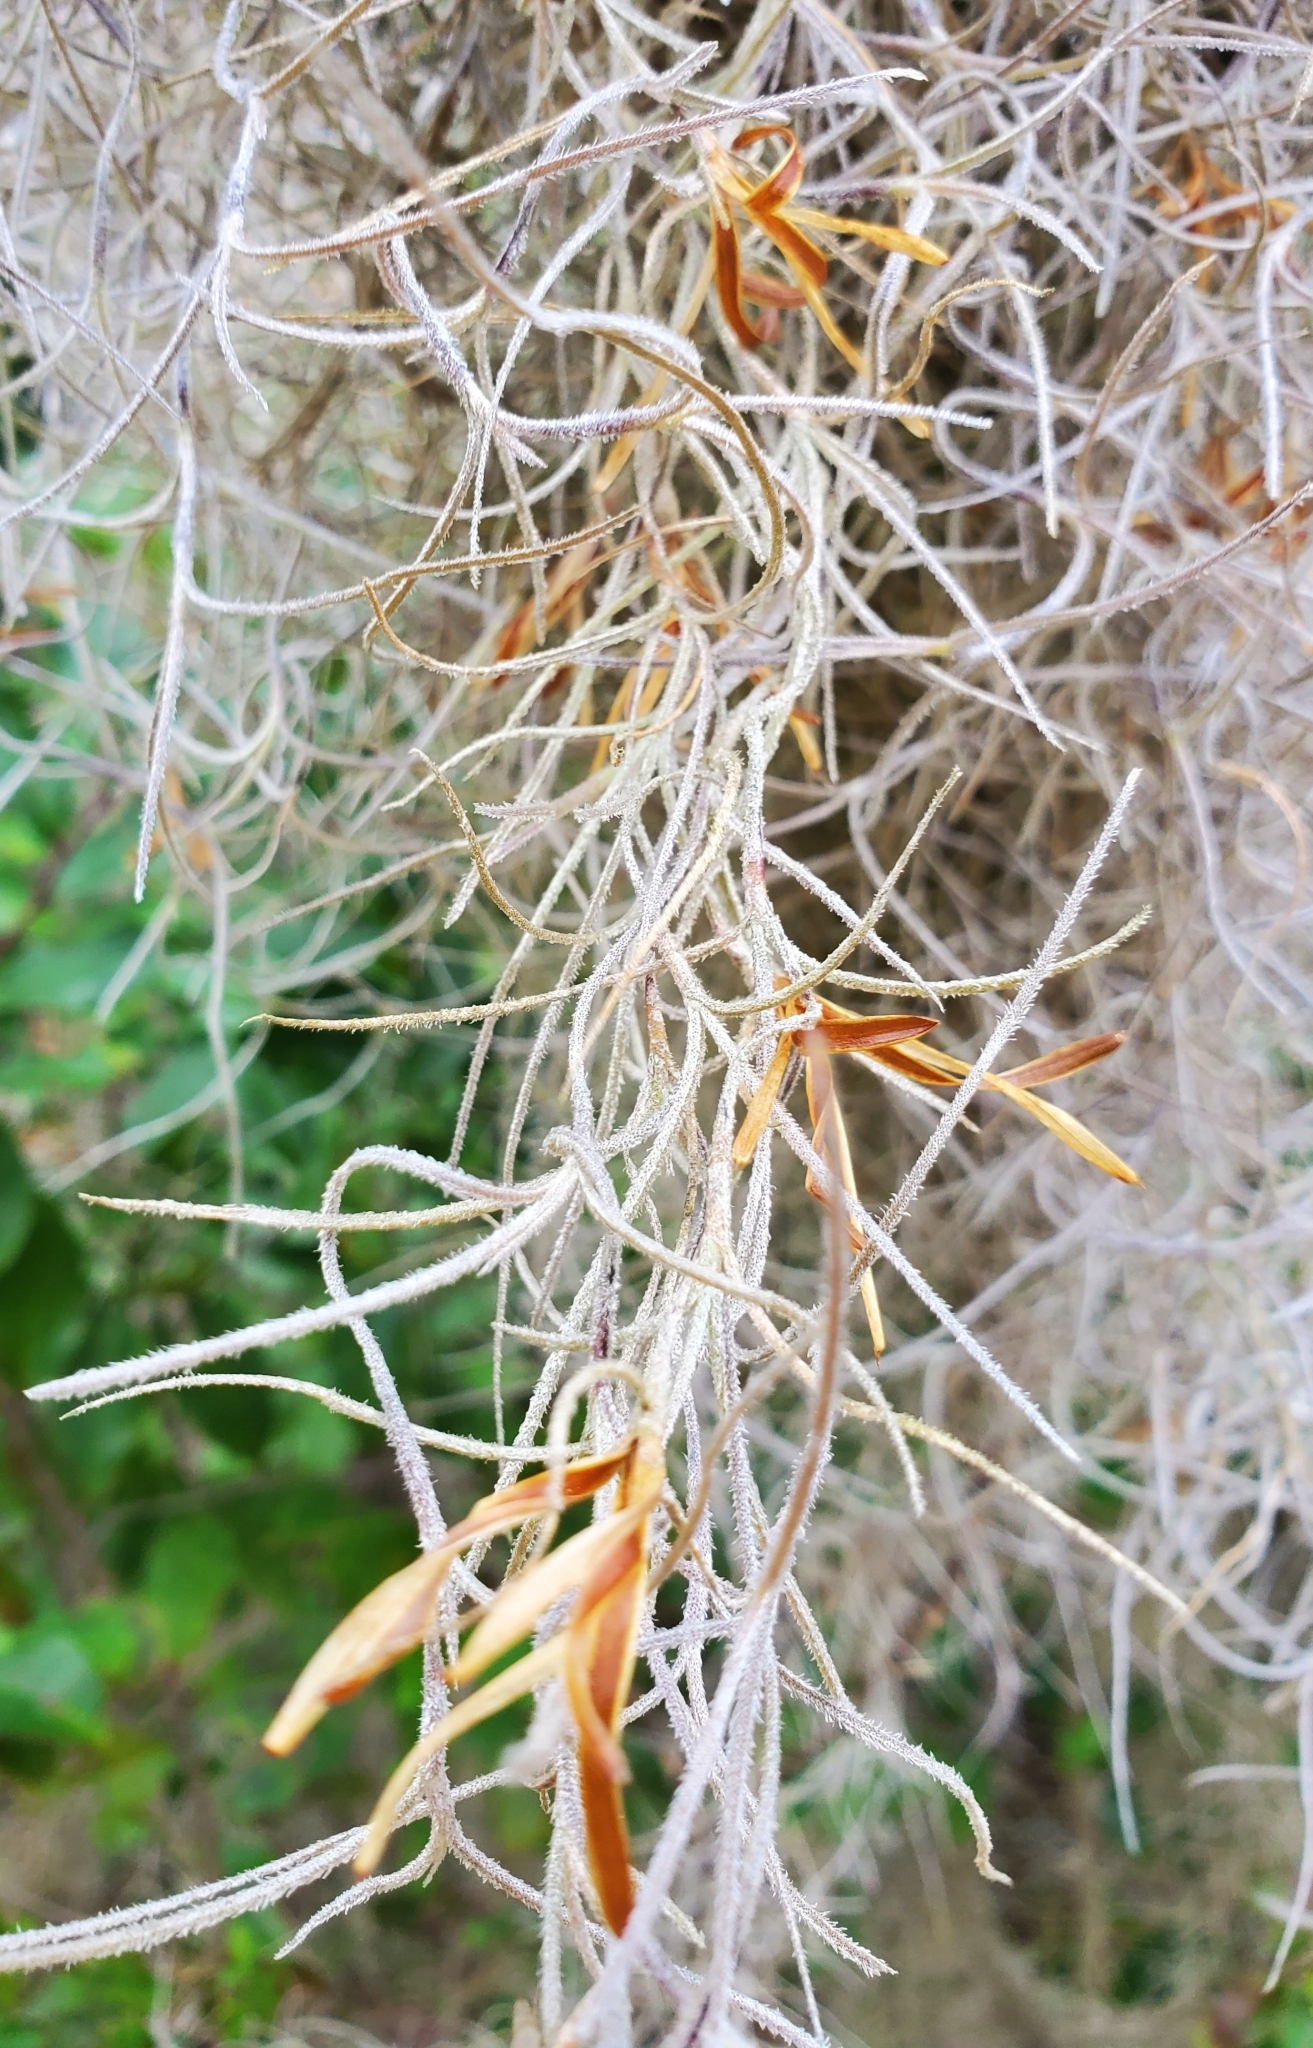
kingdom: Plantae
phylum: Tracheophyta
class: Liliopsida
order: Poales
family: Bromeliaceae
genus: Tillandsia
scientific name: Tillandsia usneoides
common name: Spanish moss
